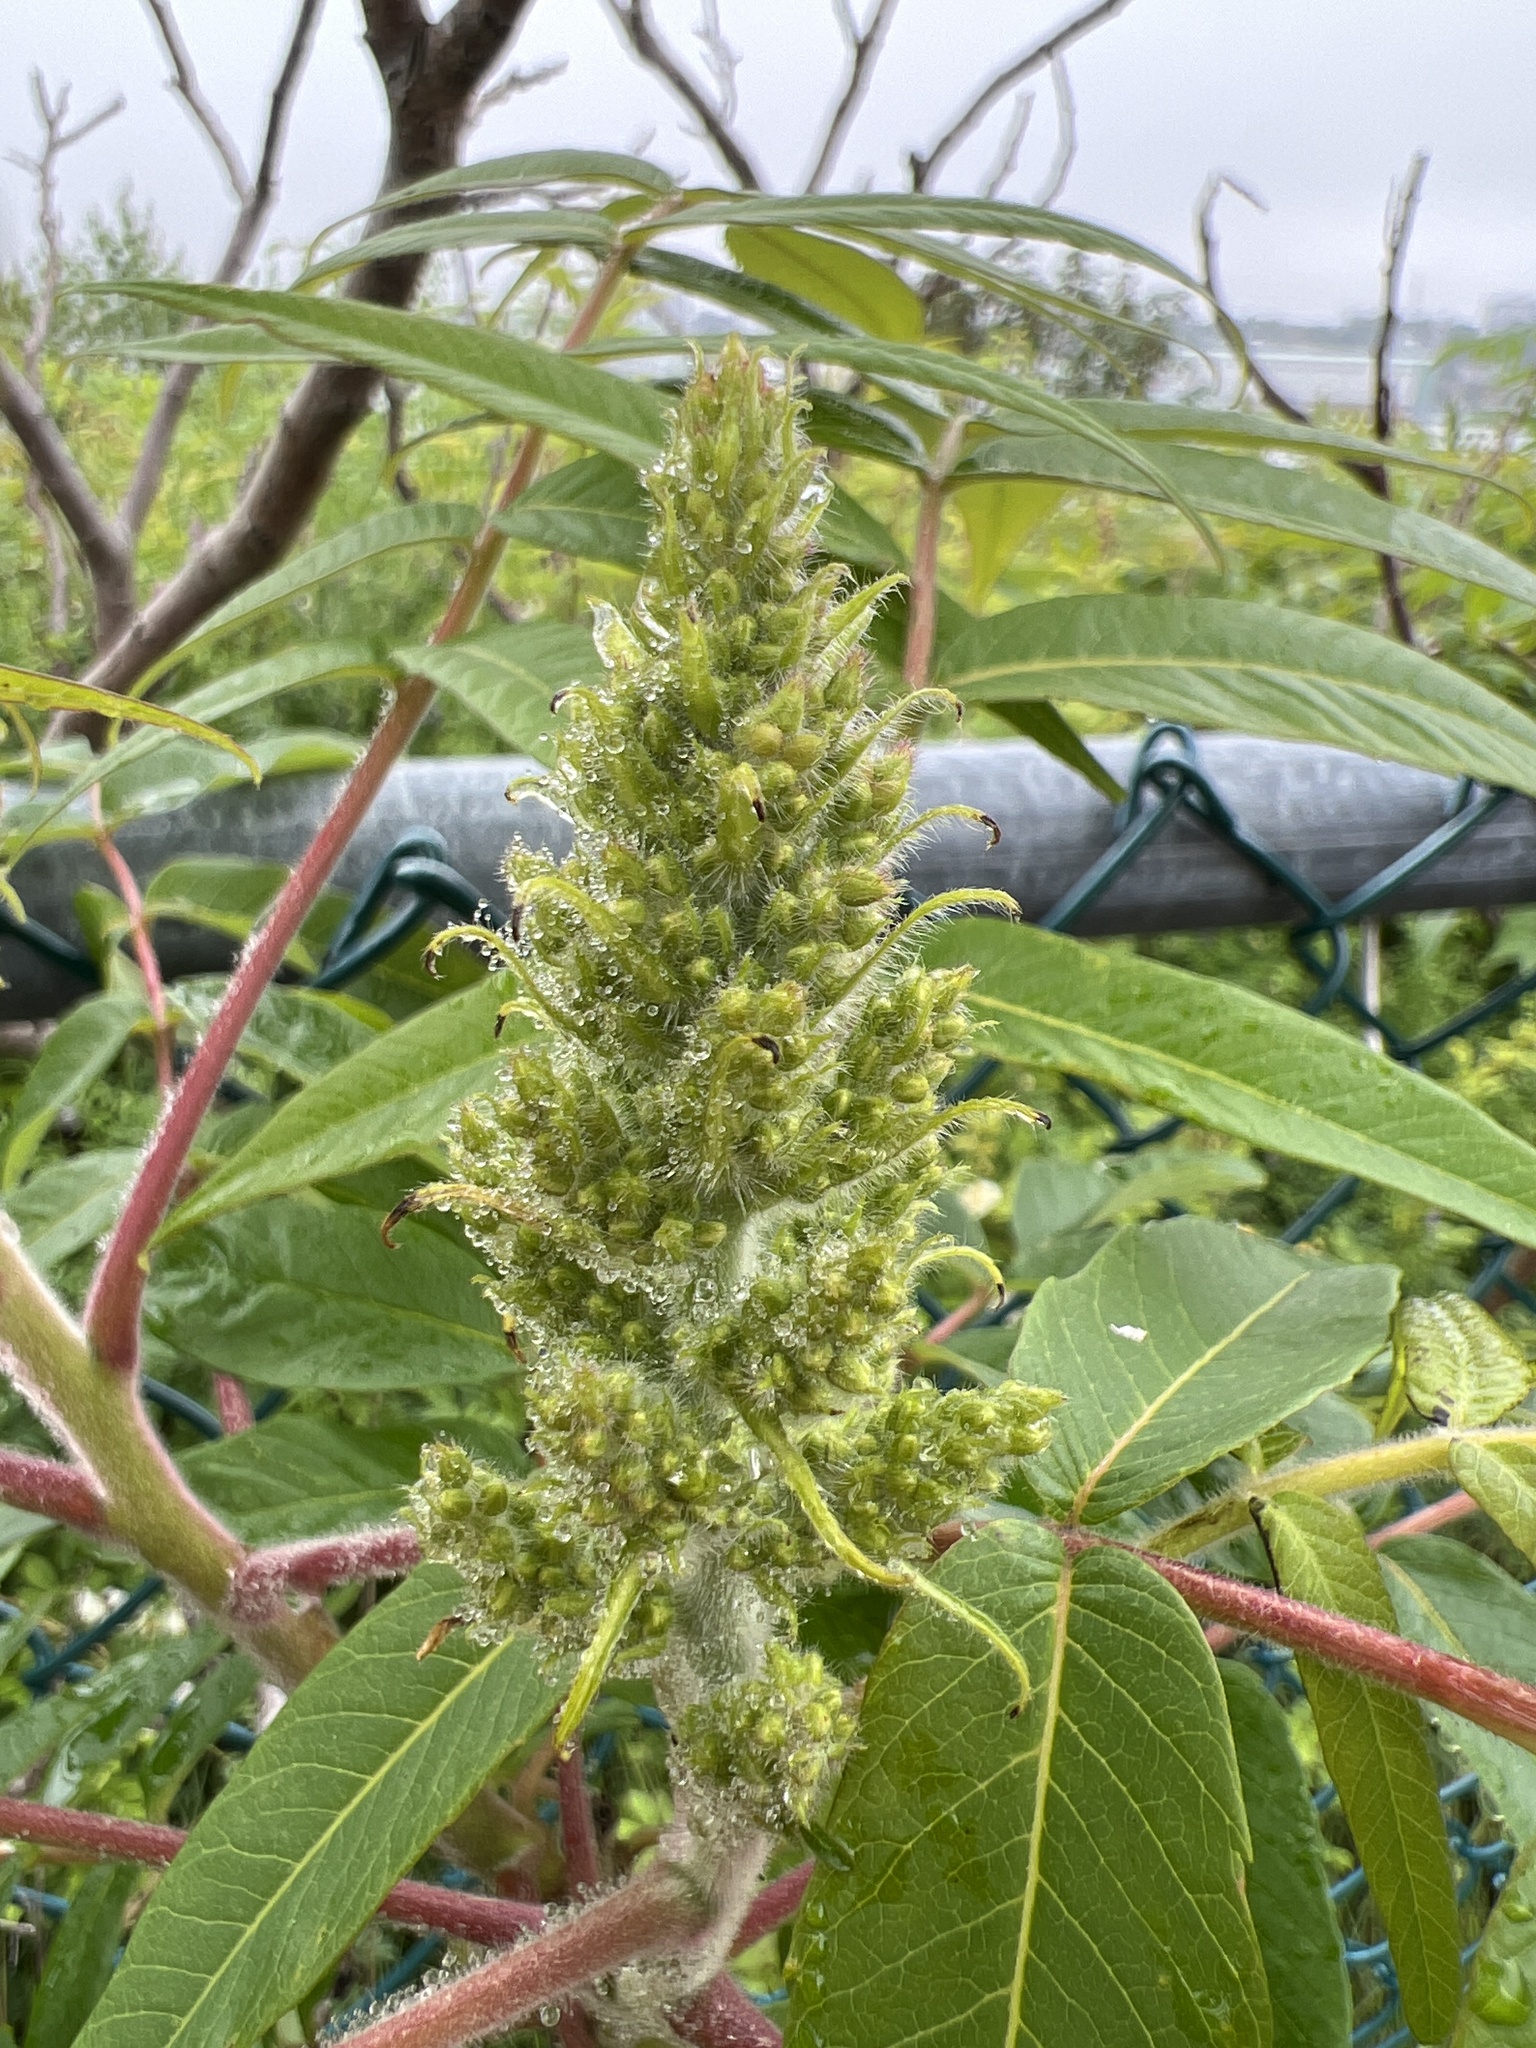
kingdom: Plantae
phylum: Tracheophyta
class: Magnoliopsida
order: Sapindales
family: Anacardiaceae
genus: Rhus
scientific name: Rhus typhina
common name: Staghorn sumac
